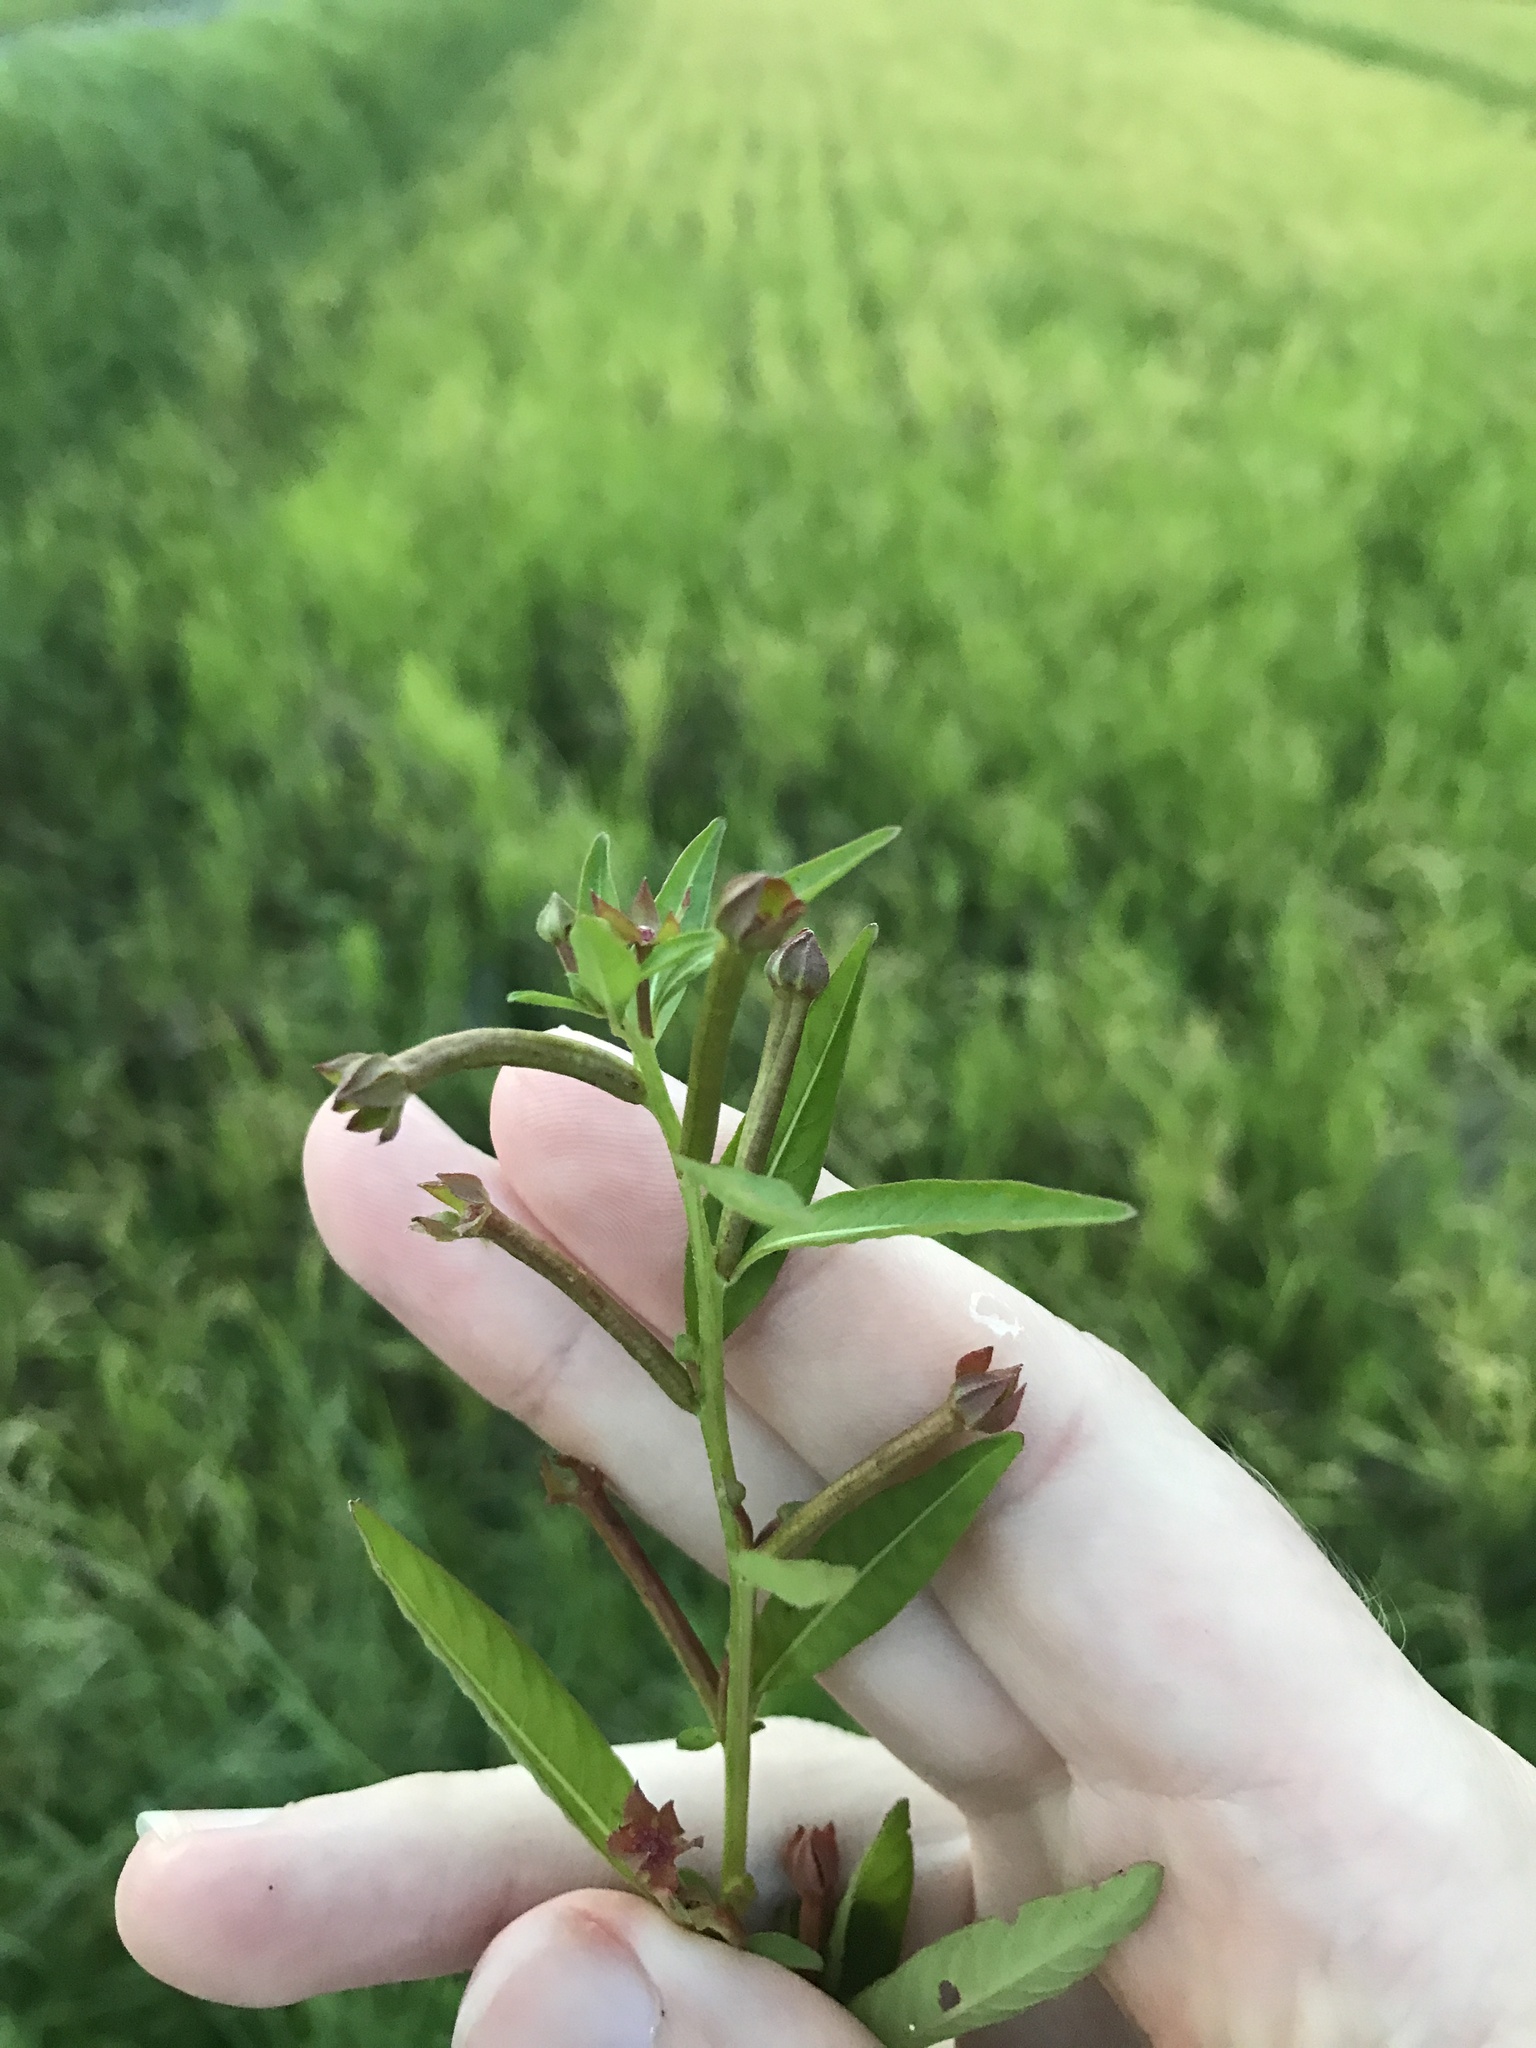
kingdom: Plantae
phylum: Tracheophyta
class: Magnoliopsida
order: Myrtales
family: Onagraceae
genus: Ludwigia
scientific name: Ludwigia epilobioides
